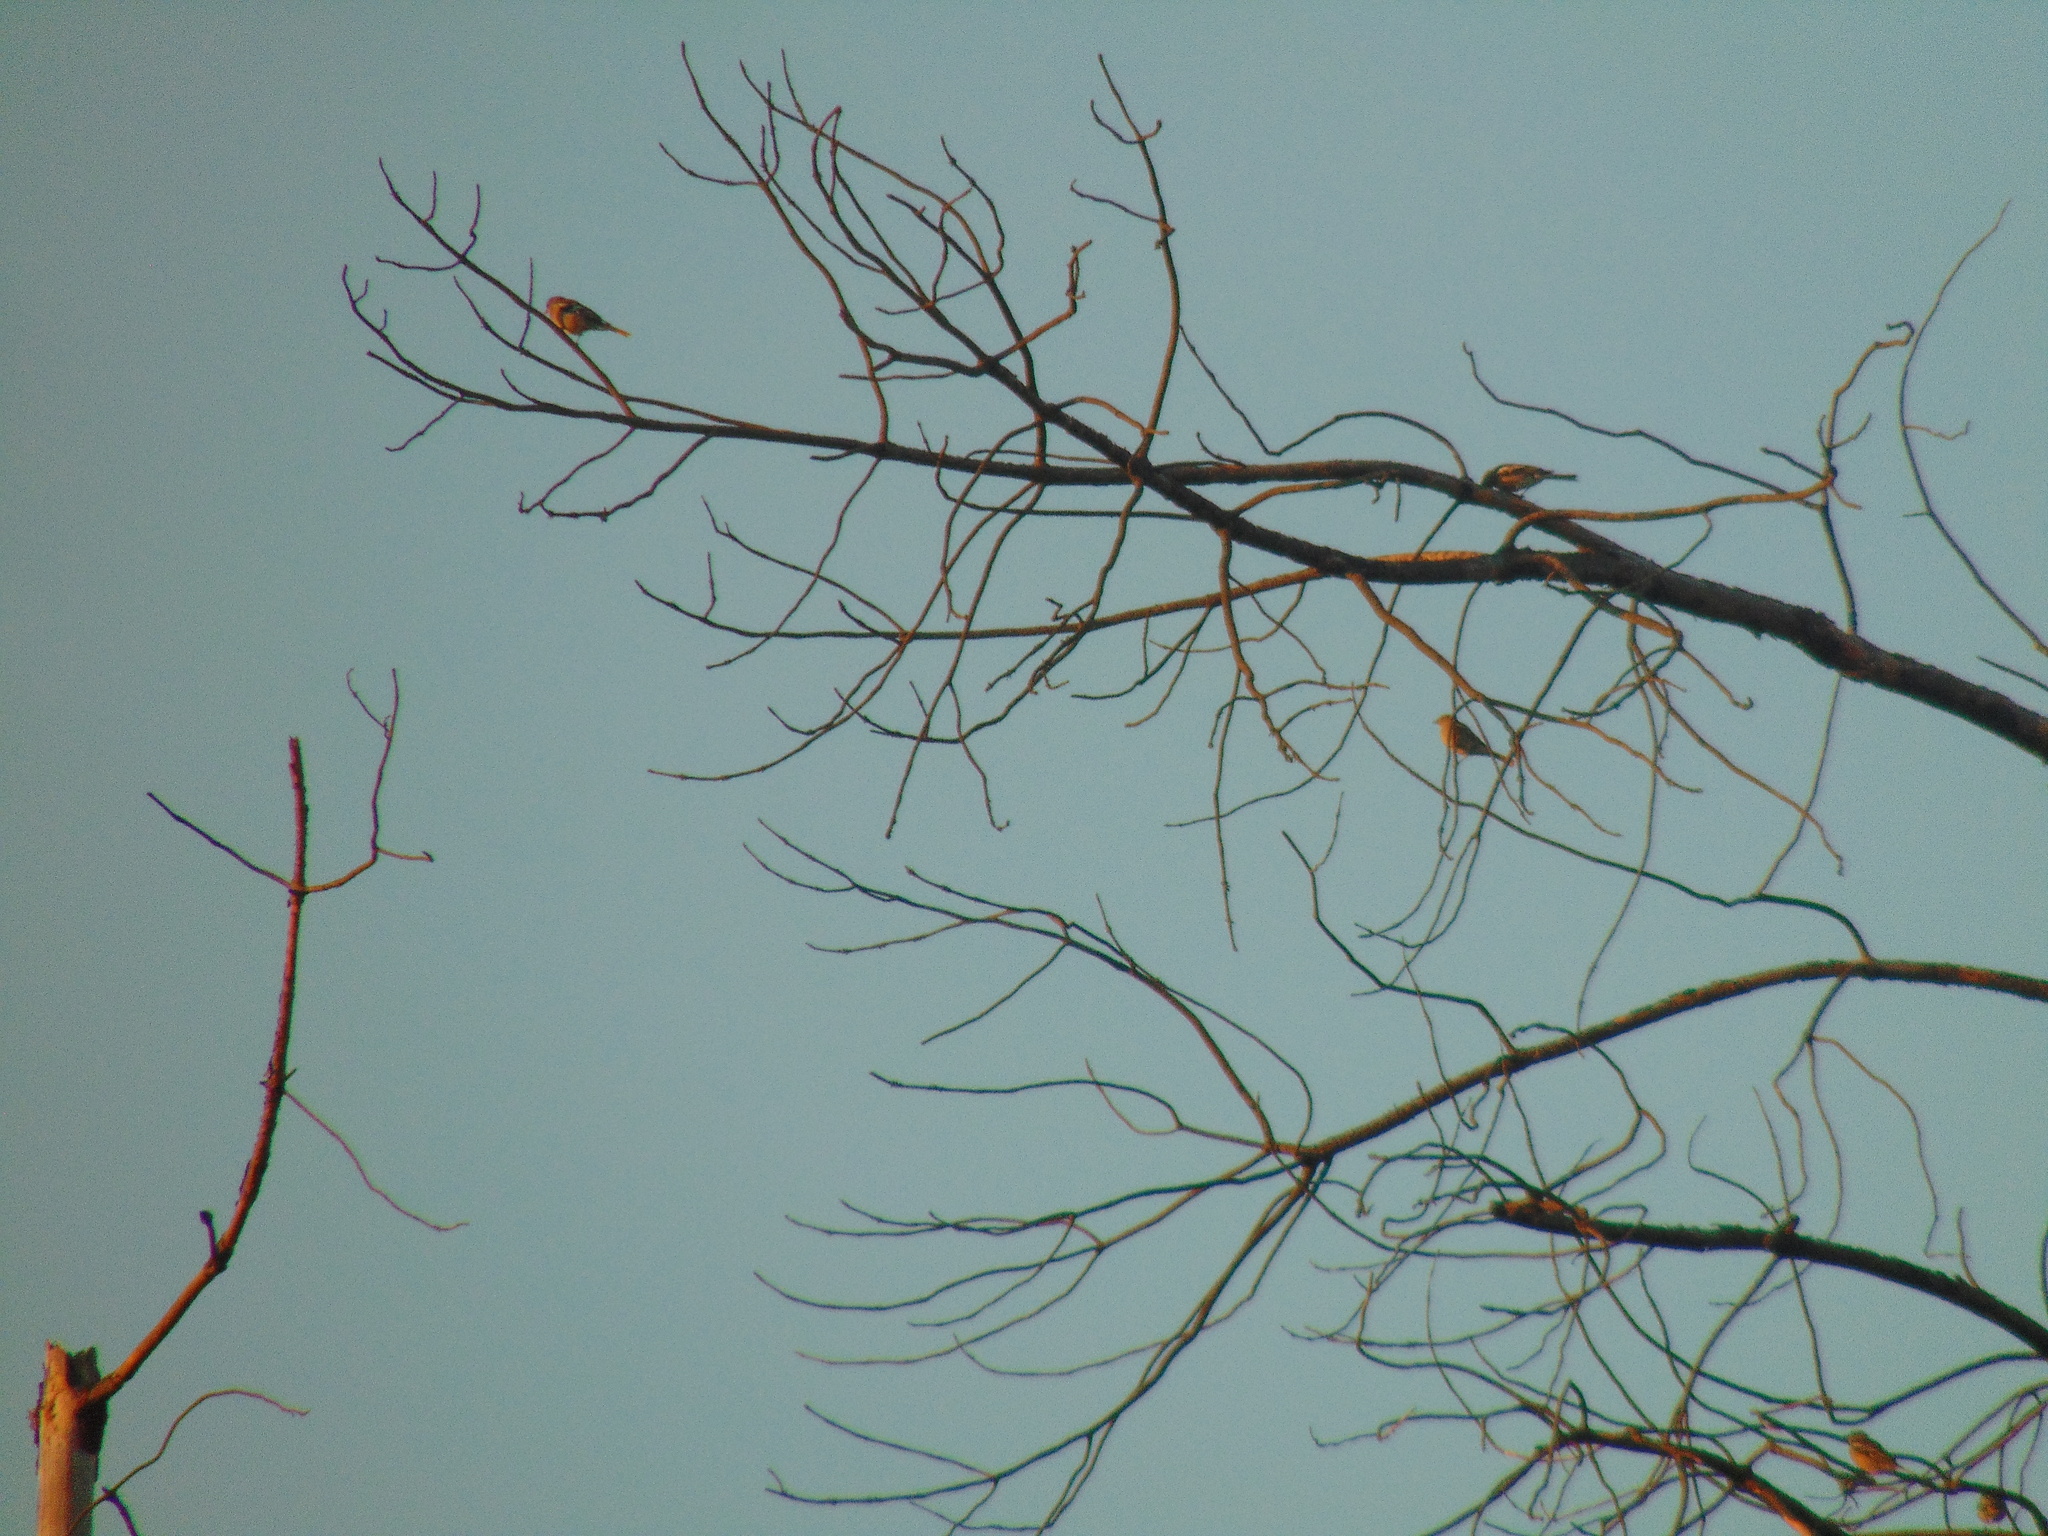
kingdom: Animalia
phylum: Chordata
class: Aves
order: Passeriformes
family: Fringillidae
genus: Fringilla
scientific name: Fringilla coelebs
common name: Common chaffinch
